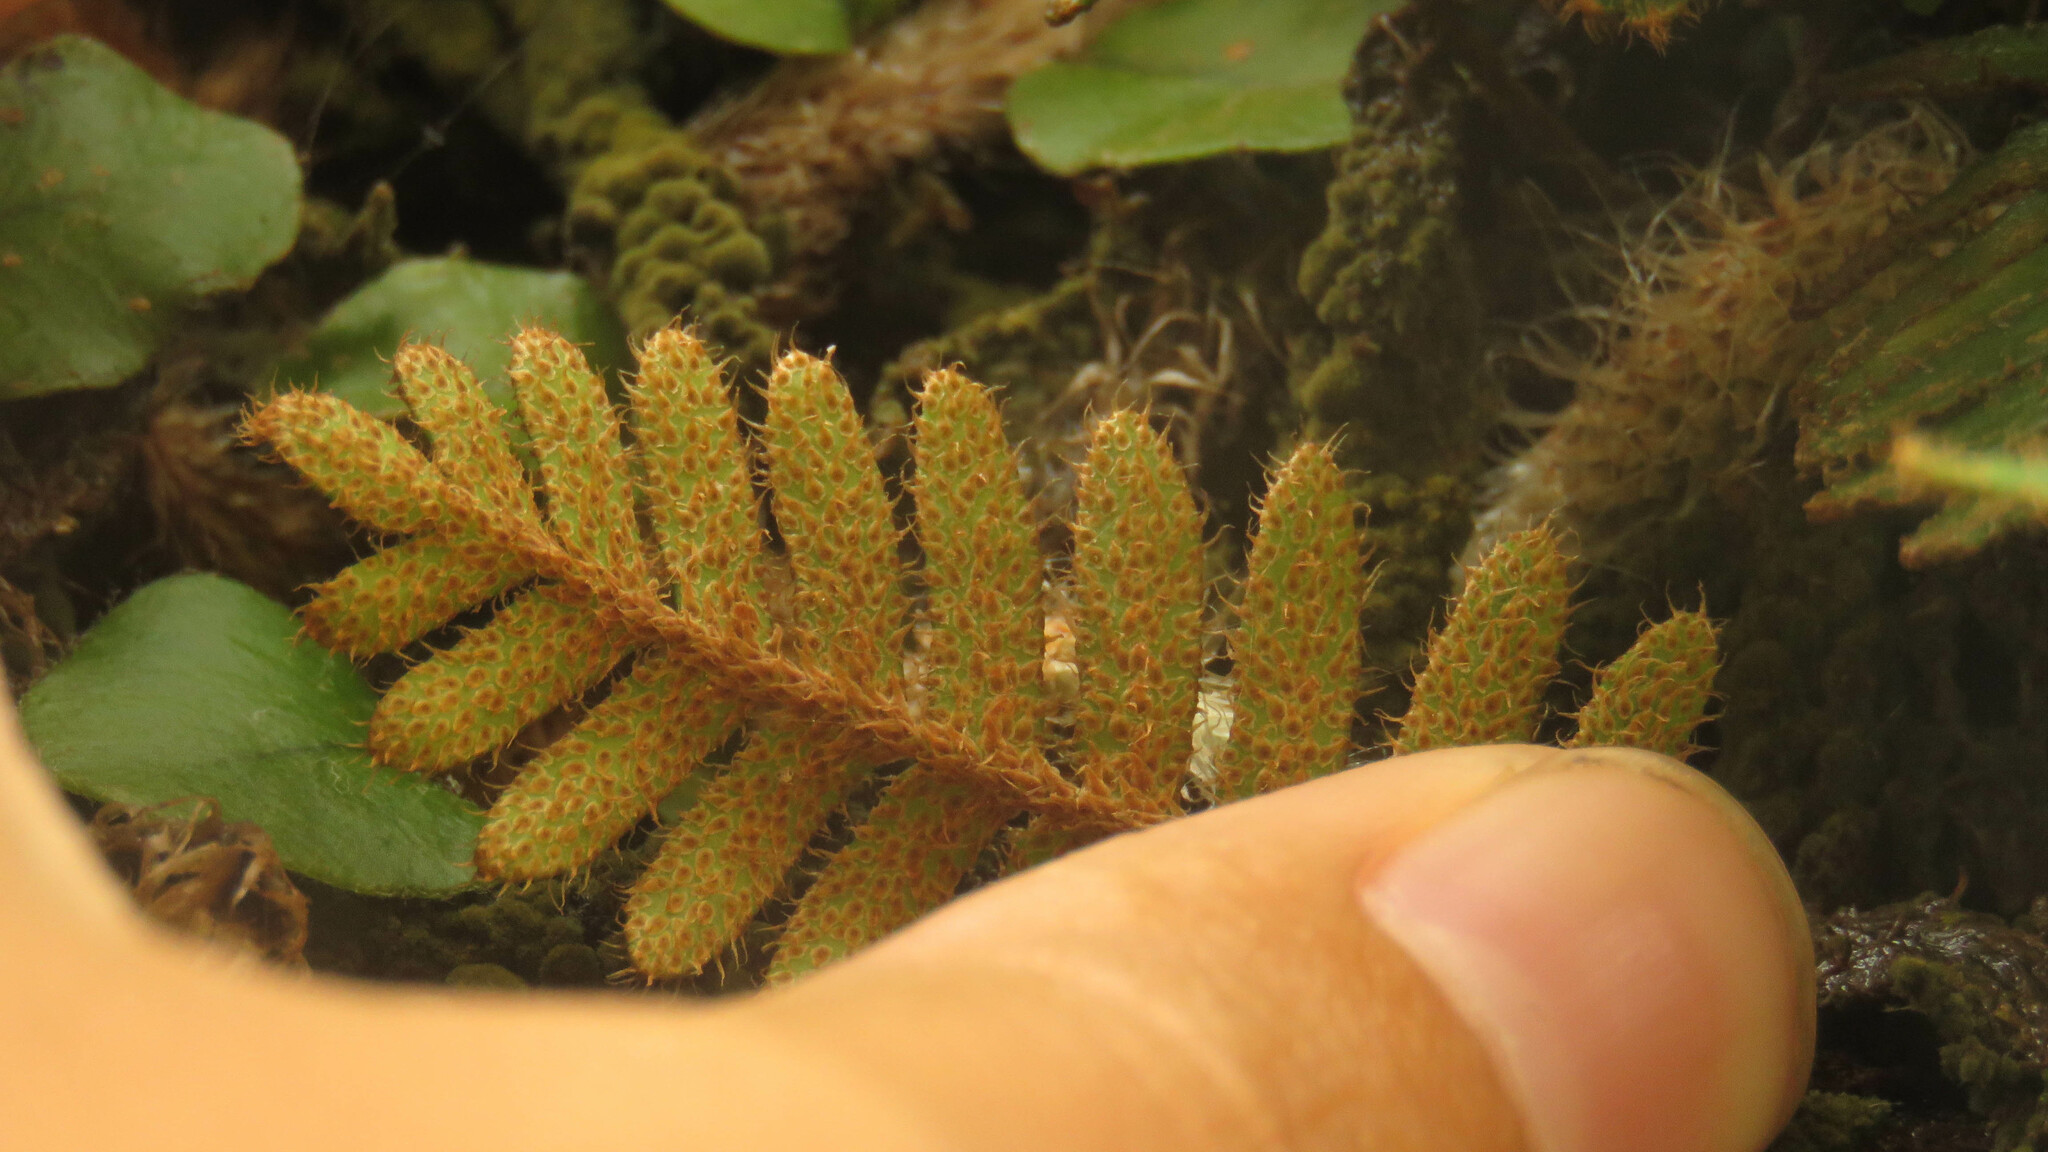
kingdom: Plantae
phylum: Tracheophyta
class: Polypodiopsida
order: Polypodiales
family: Polypodiaceae
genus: Pleopeltis
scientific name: Pleopeltis minima
